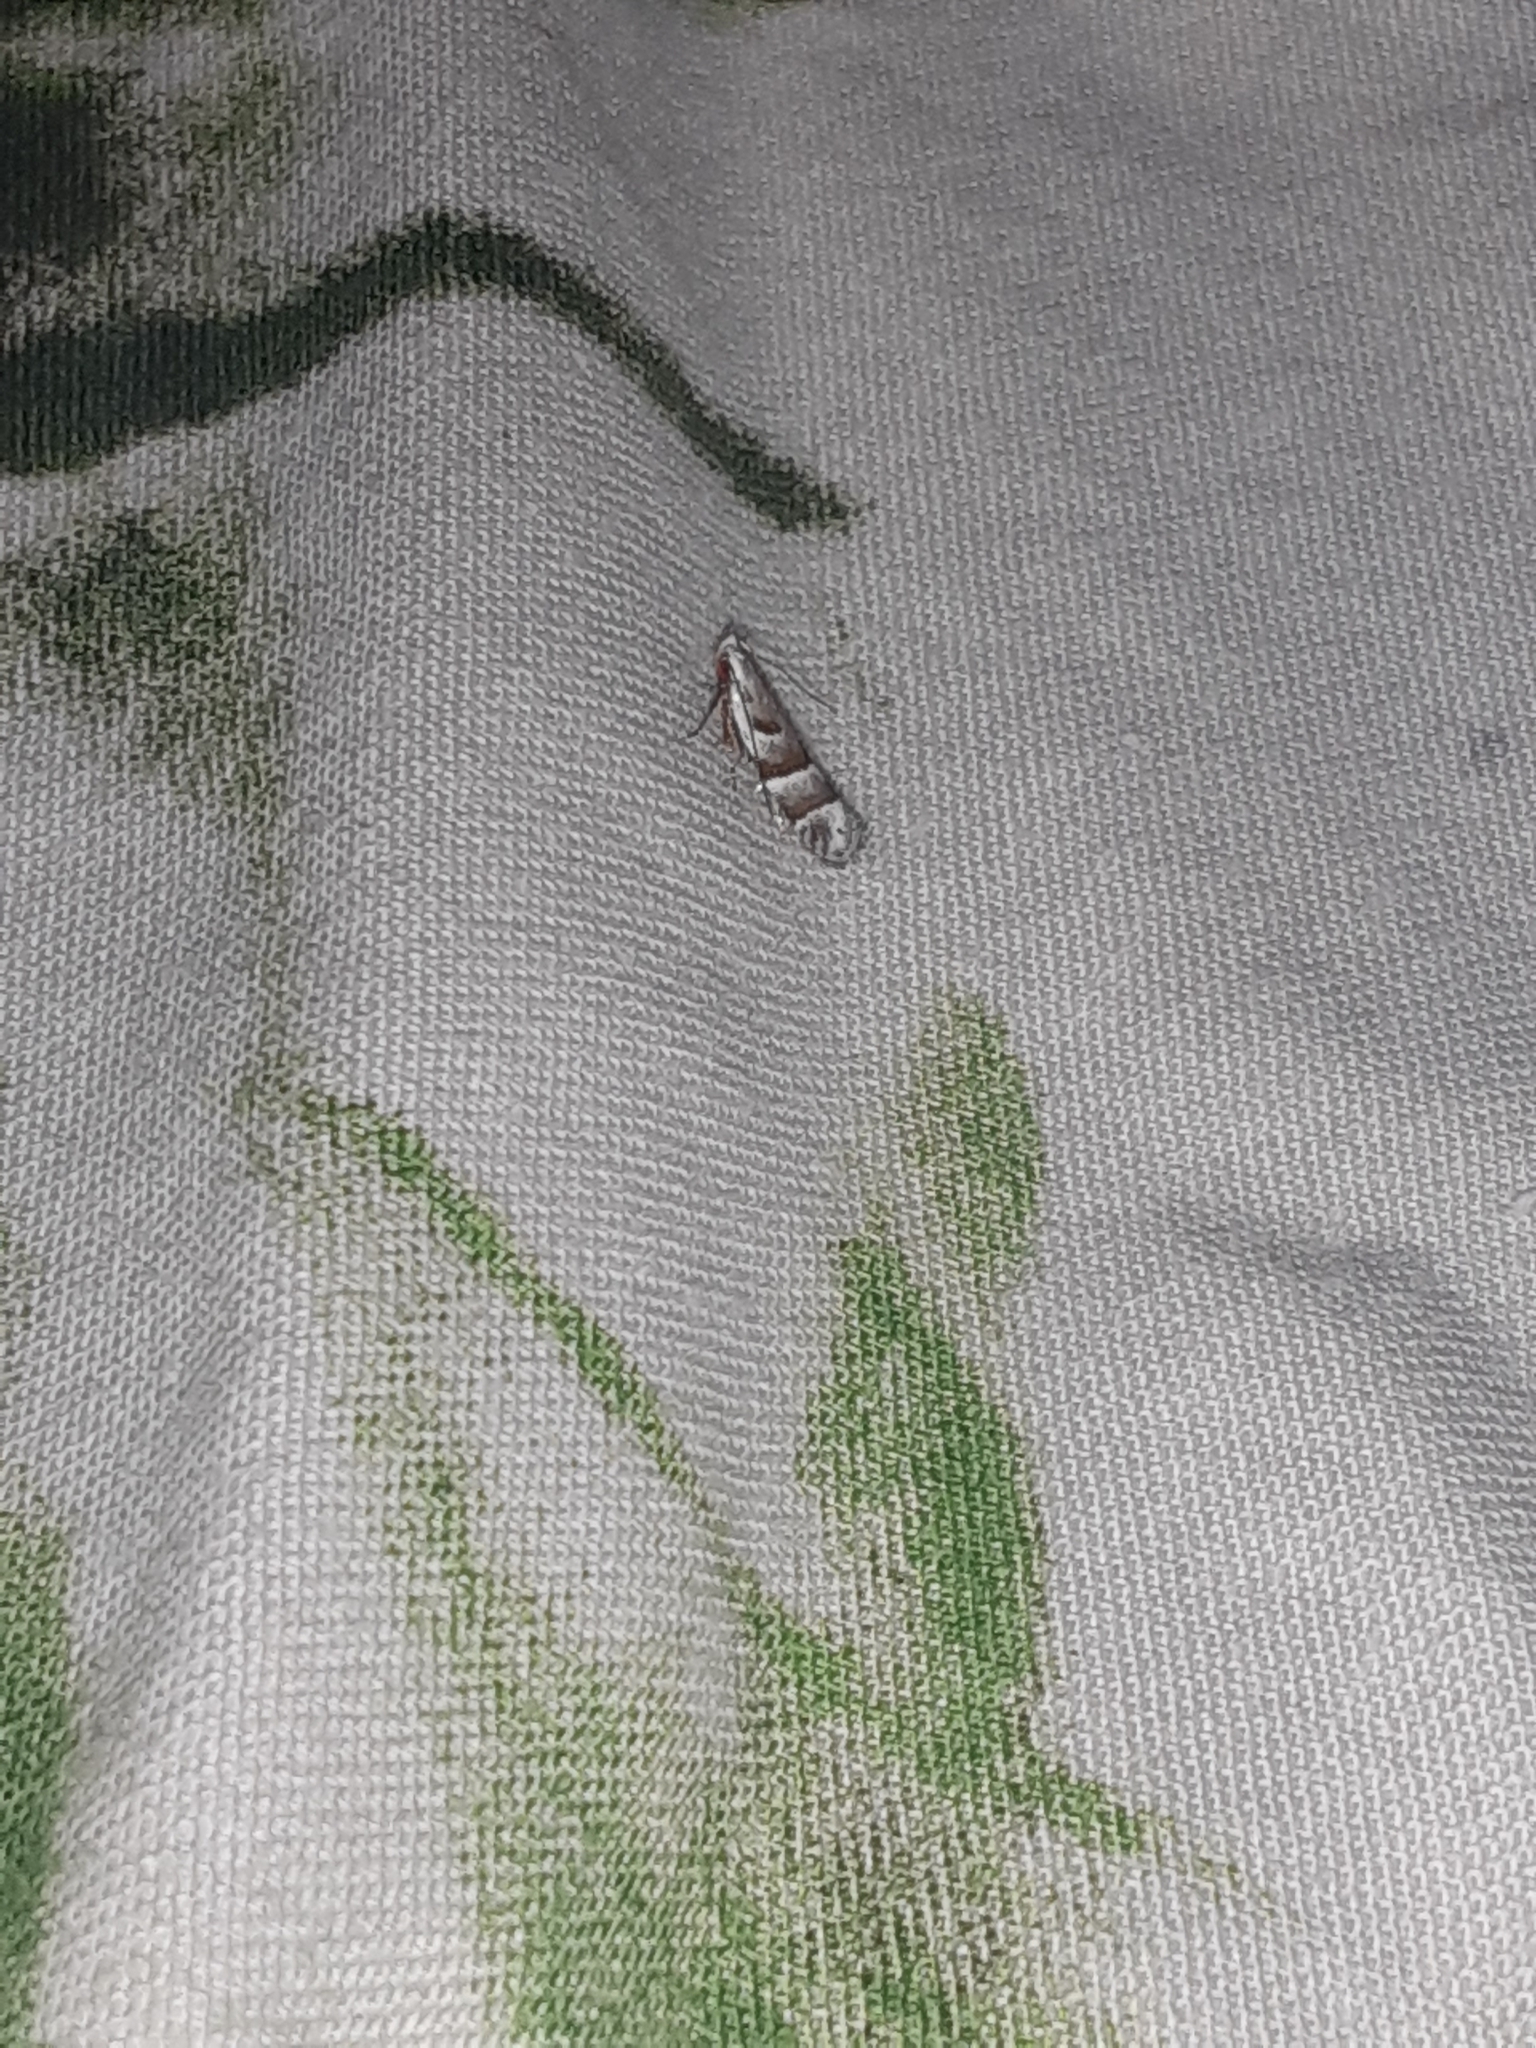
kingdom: Animalia
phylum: Arthropoda
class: Insecta
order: Lepidoptera
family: Gelechiidae
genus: Battaristis
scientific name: Battaristis vittella
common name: Orange stripe-backed moth
